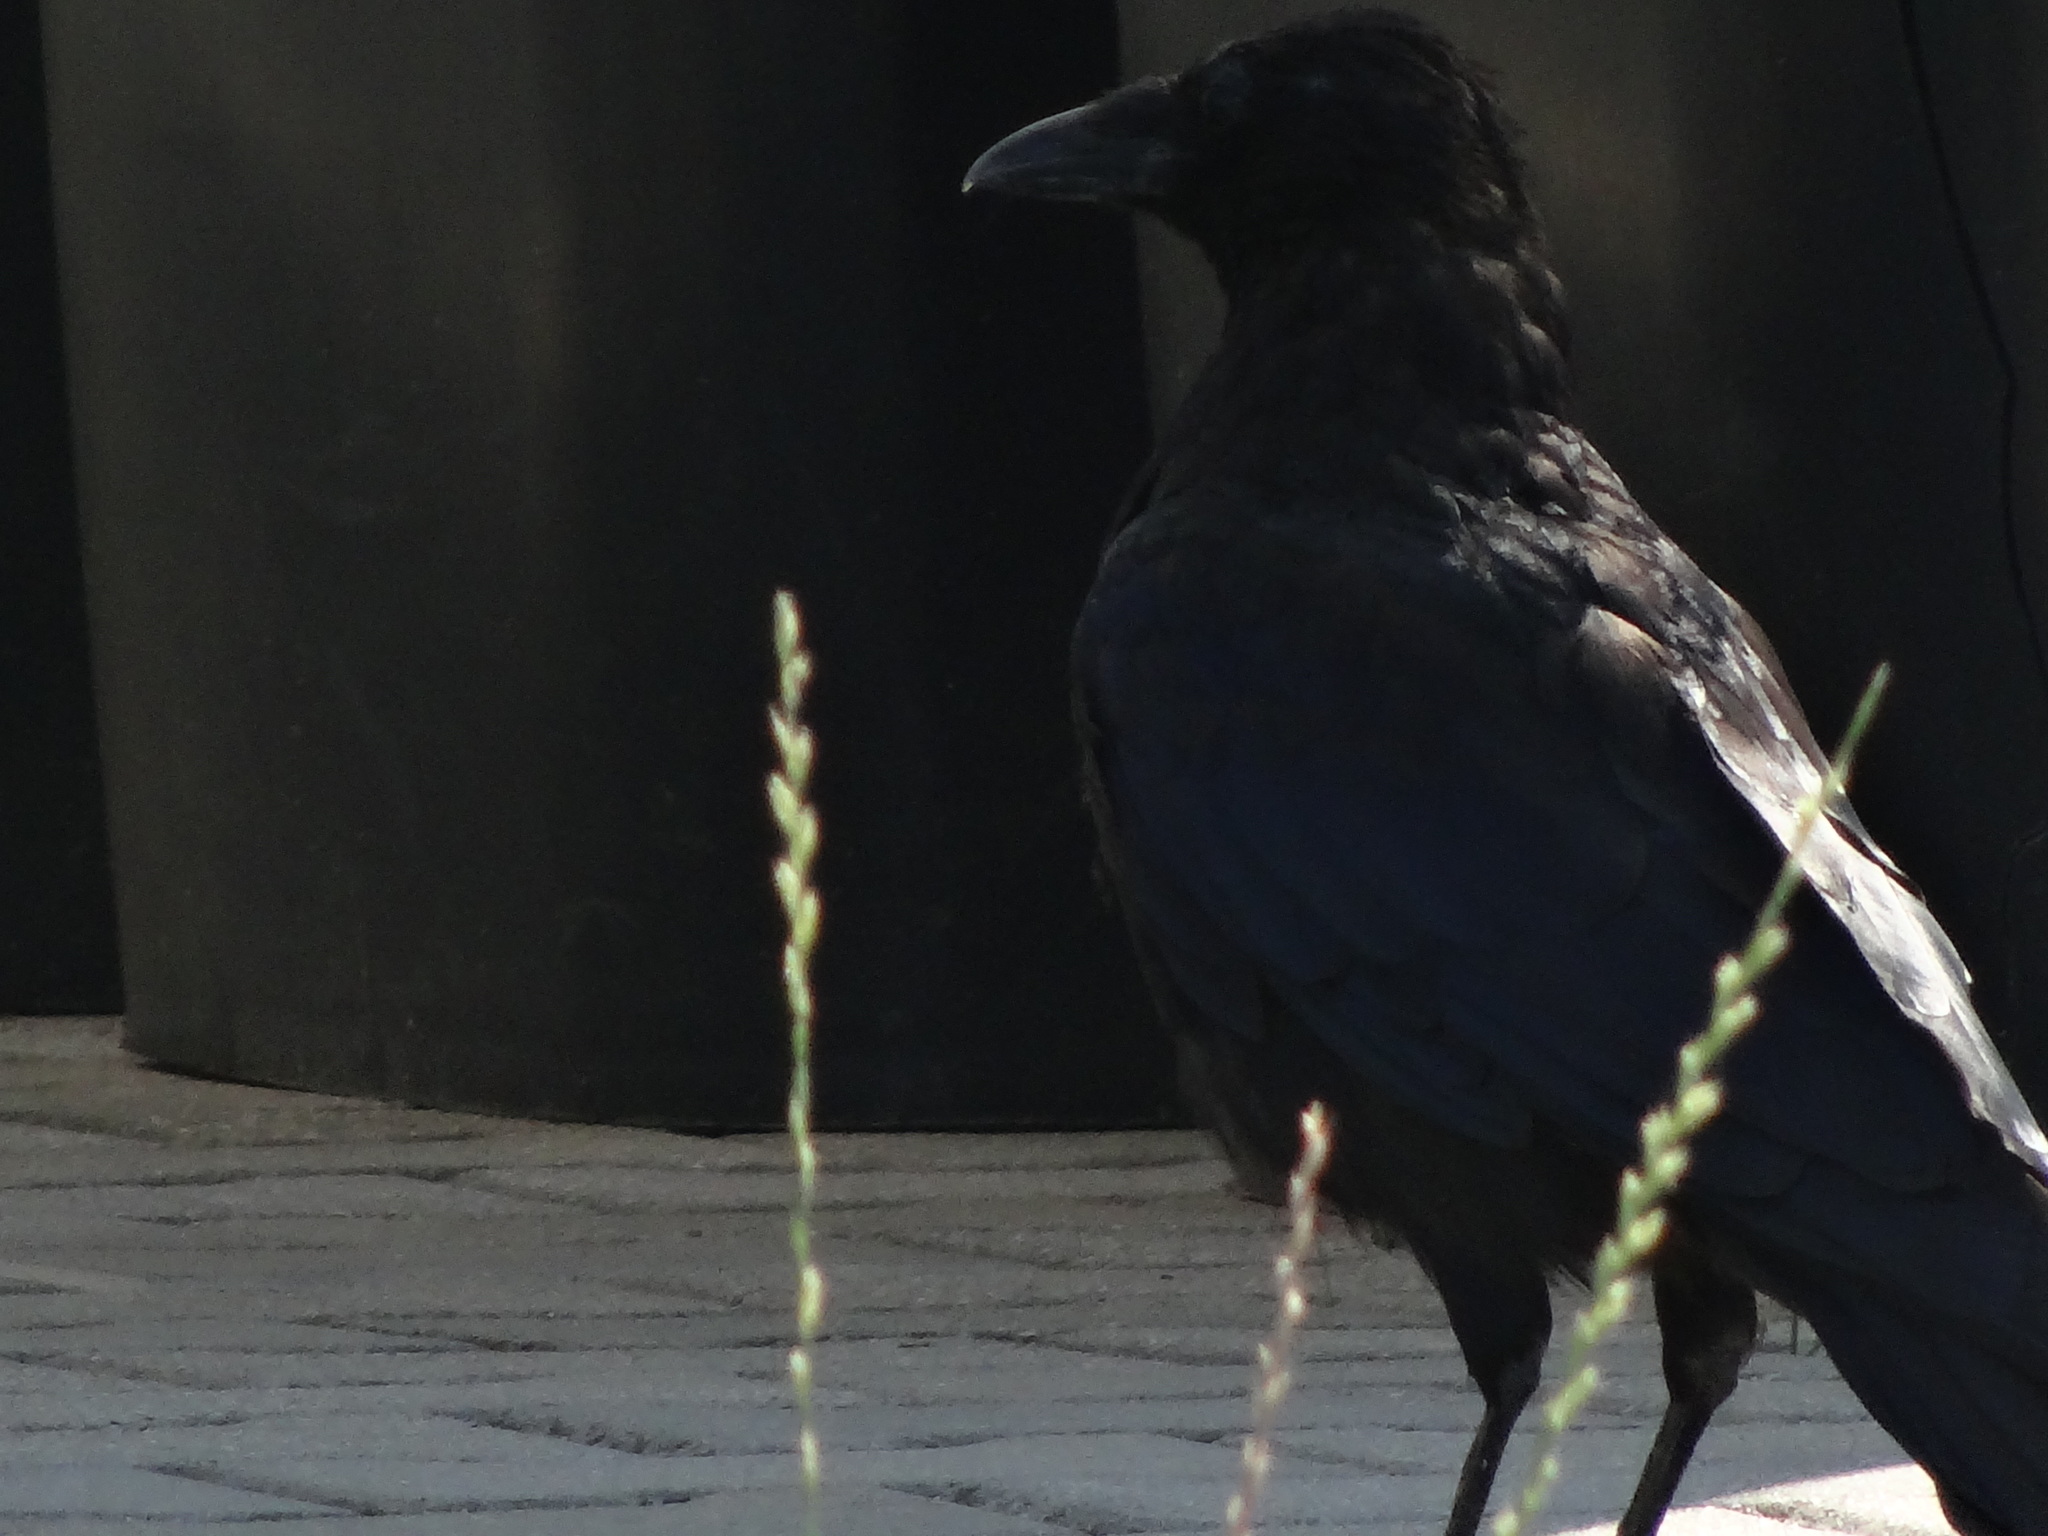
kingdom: Animalia
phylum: Chordata
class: Aves
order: Passeriformes
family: Corvidae
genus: Corvus
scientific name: Corvus corone
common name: Carrion crow
